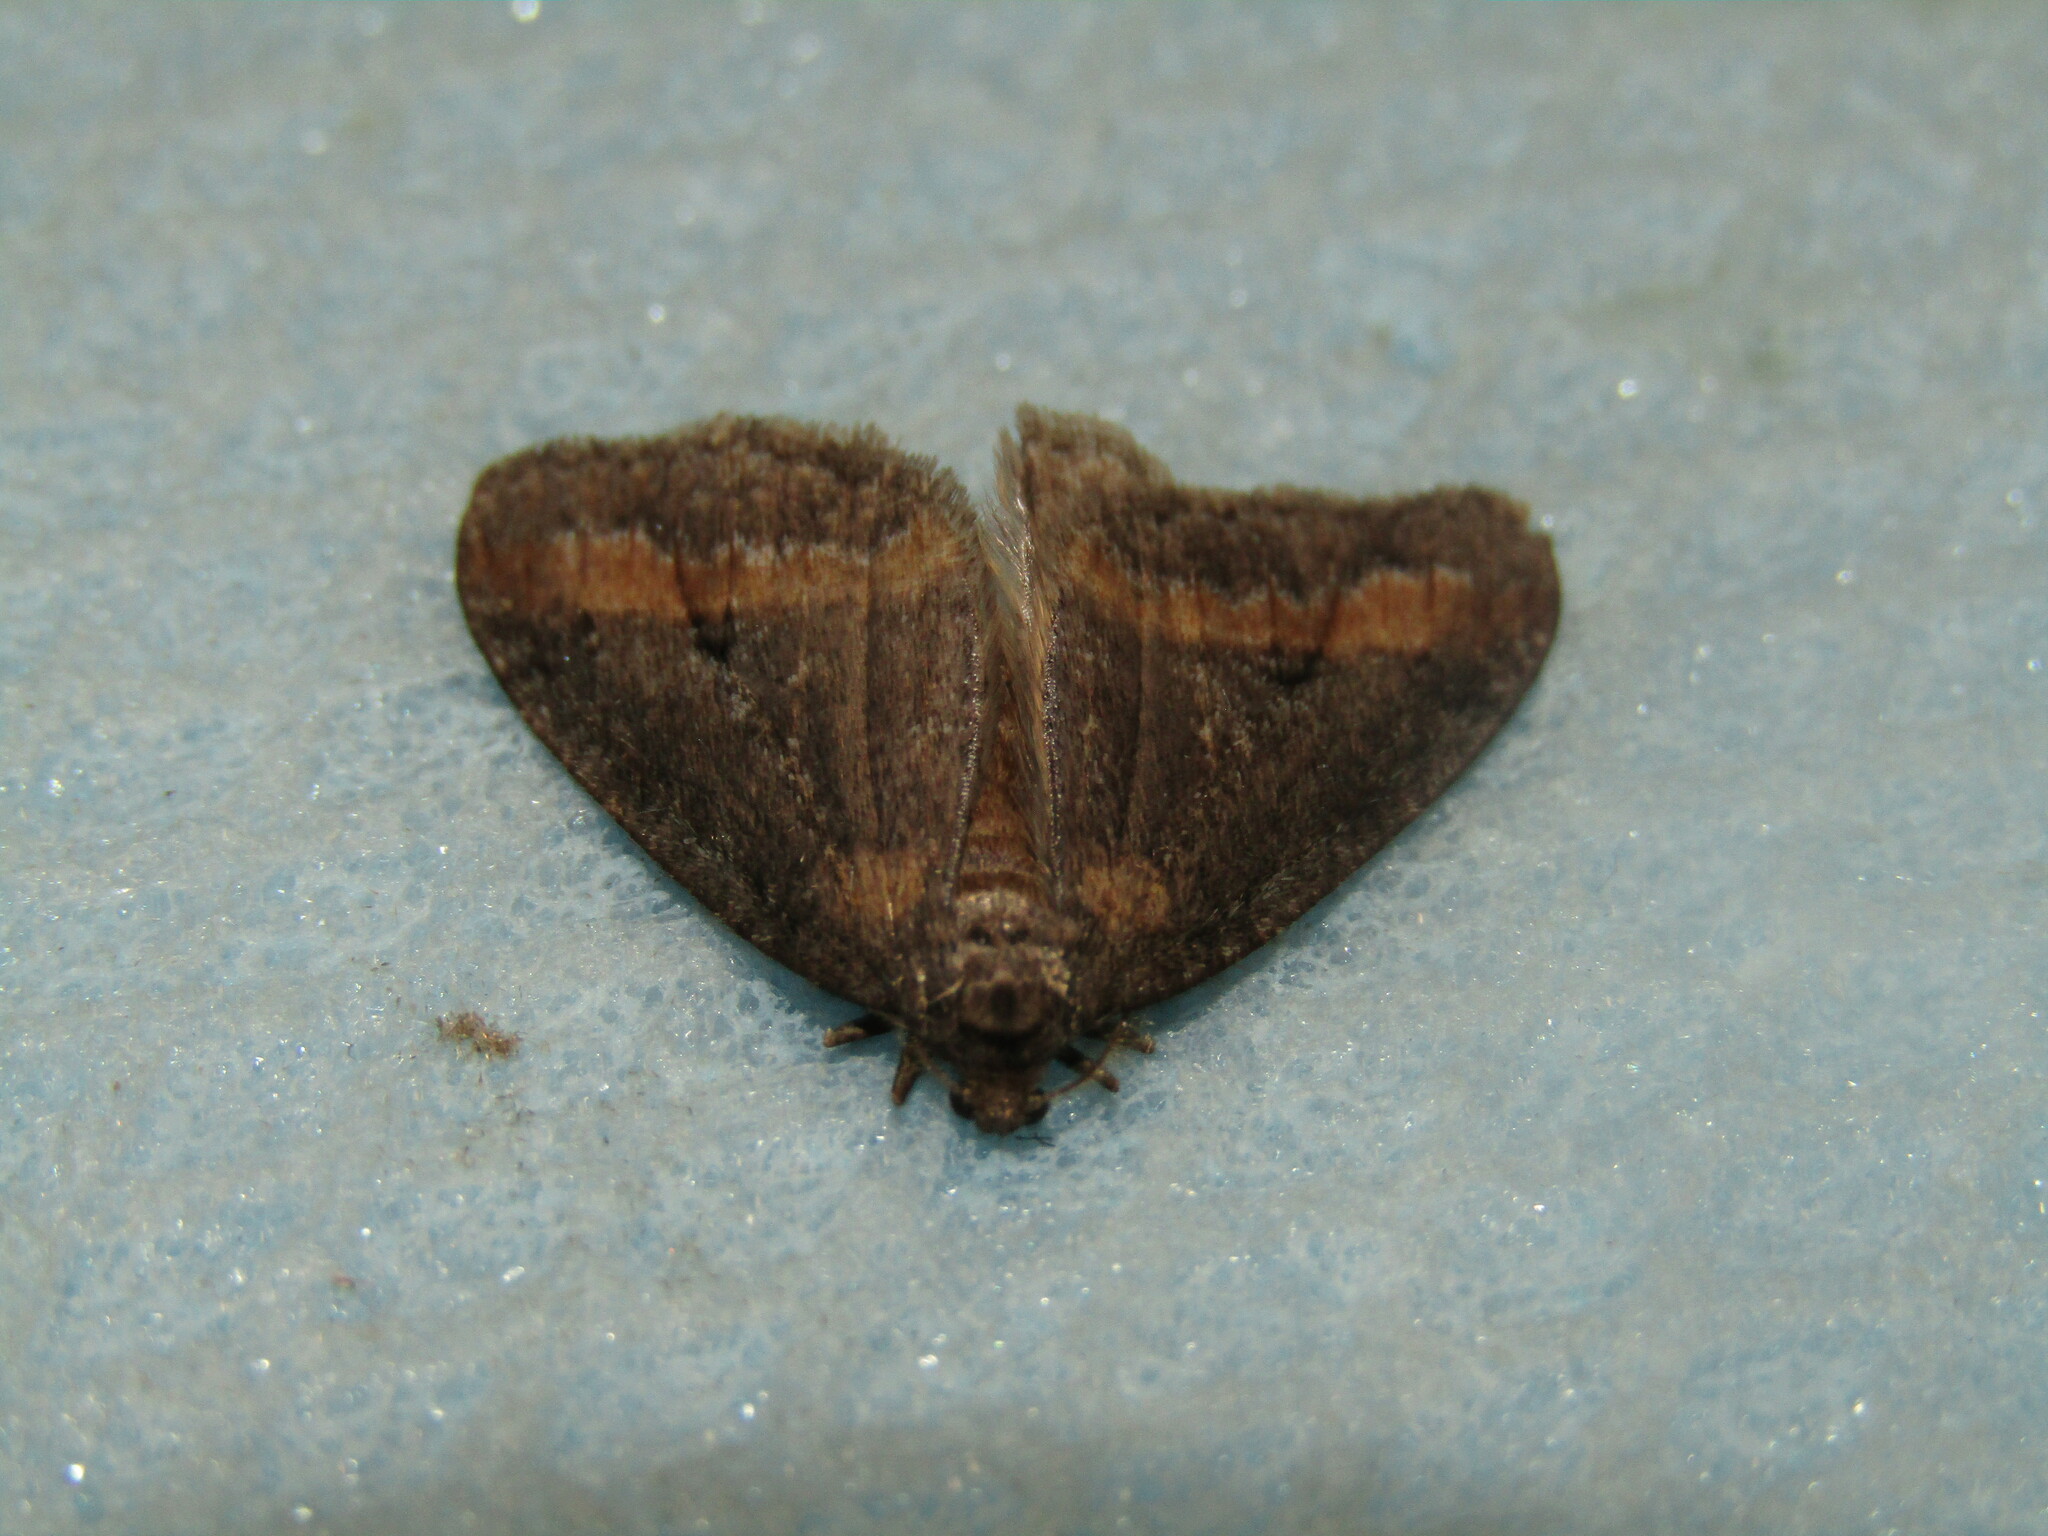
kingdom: Animalia
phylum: Arthropoda
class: Insecta
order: Lepidoptera
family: Geometridae
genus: Erannis
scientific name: Erannis declinans
